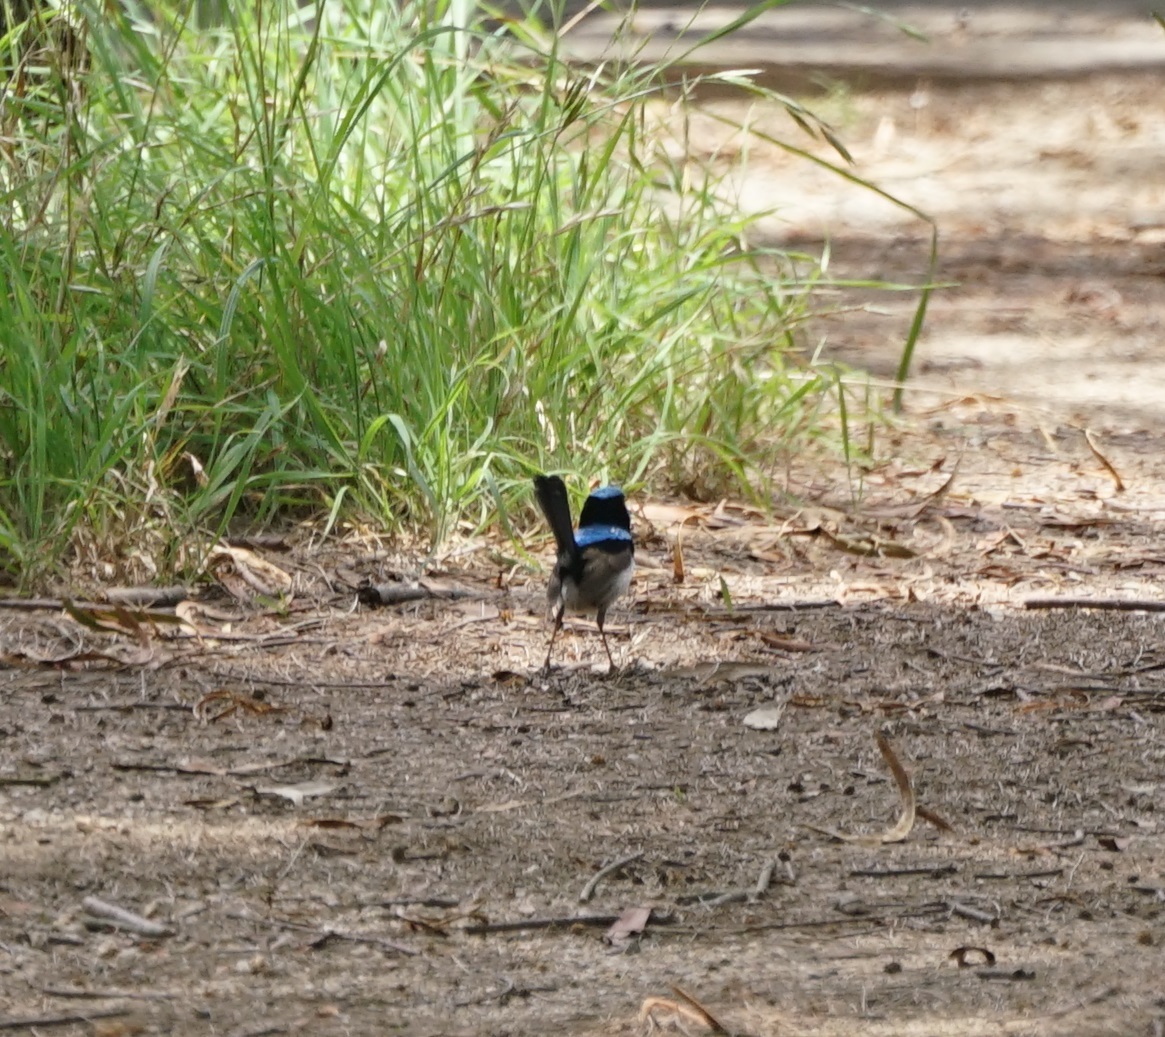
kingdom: Animalia
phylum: Chordata
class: Aves
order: Passeriformes
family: Maluridae
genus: Malurus
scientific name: Malurus cyaneus
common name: Superb fairywren
